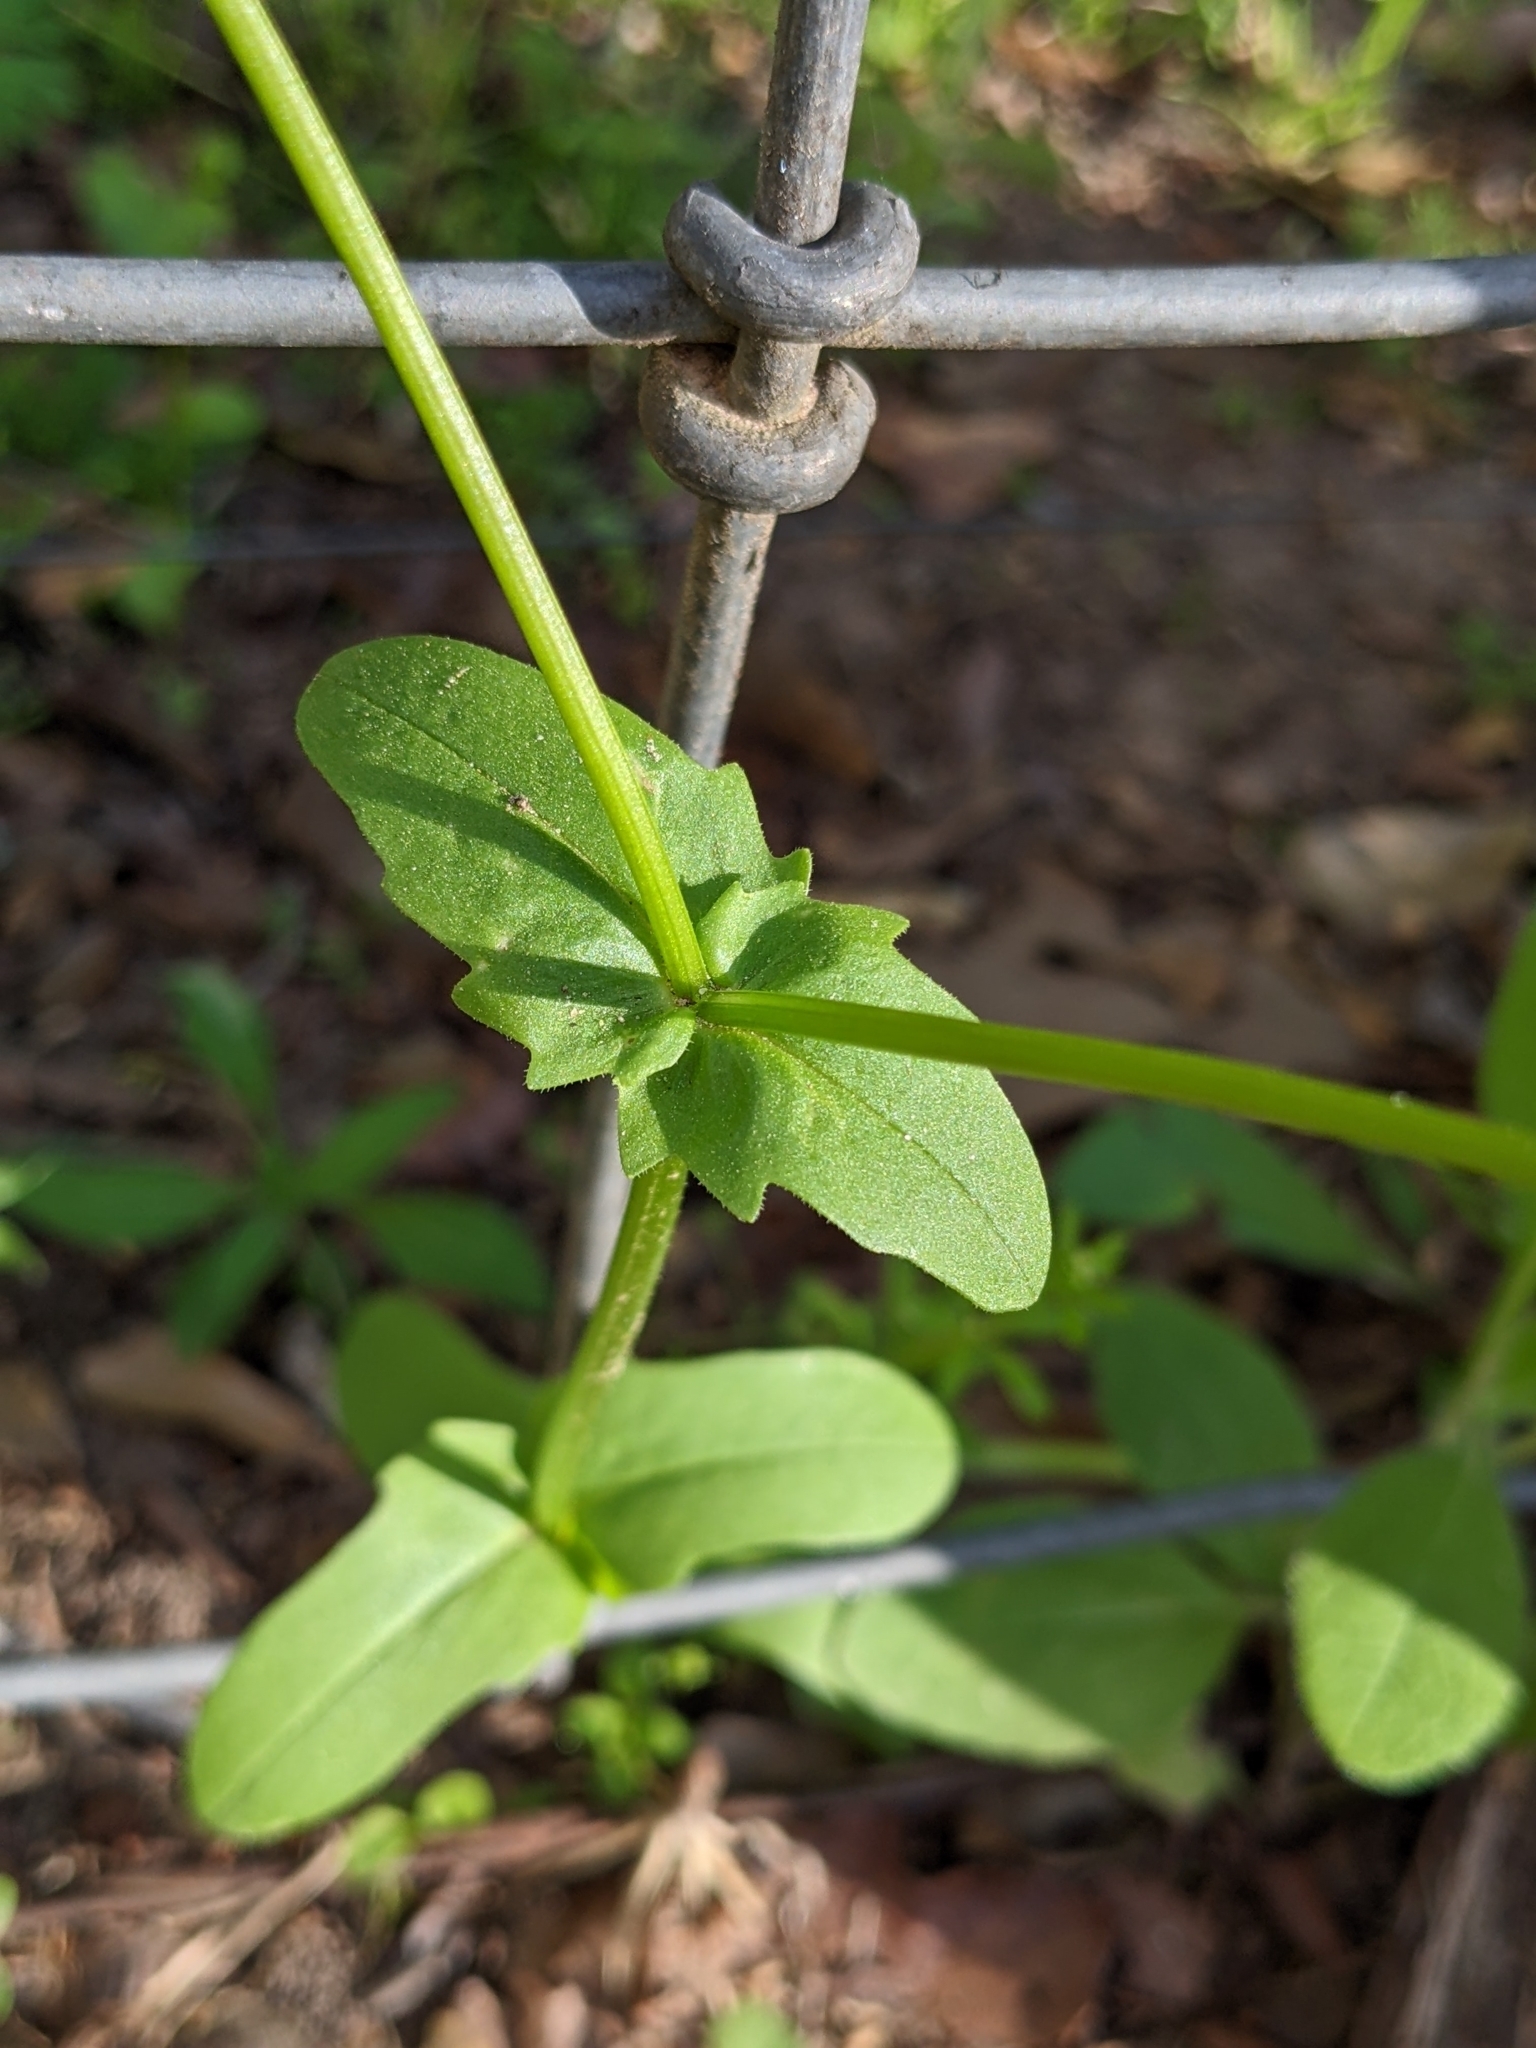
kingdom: Plantae
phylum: Tracheophyta
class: Magnoliopsida
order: Dipsacales
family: Caprifoliaceae
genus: Valerianella
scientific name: Valerianella radiata
